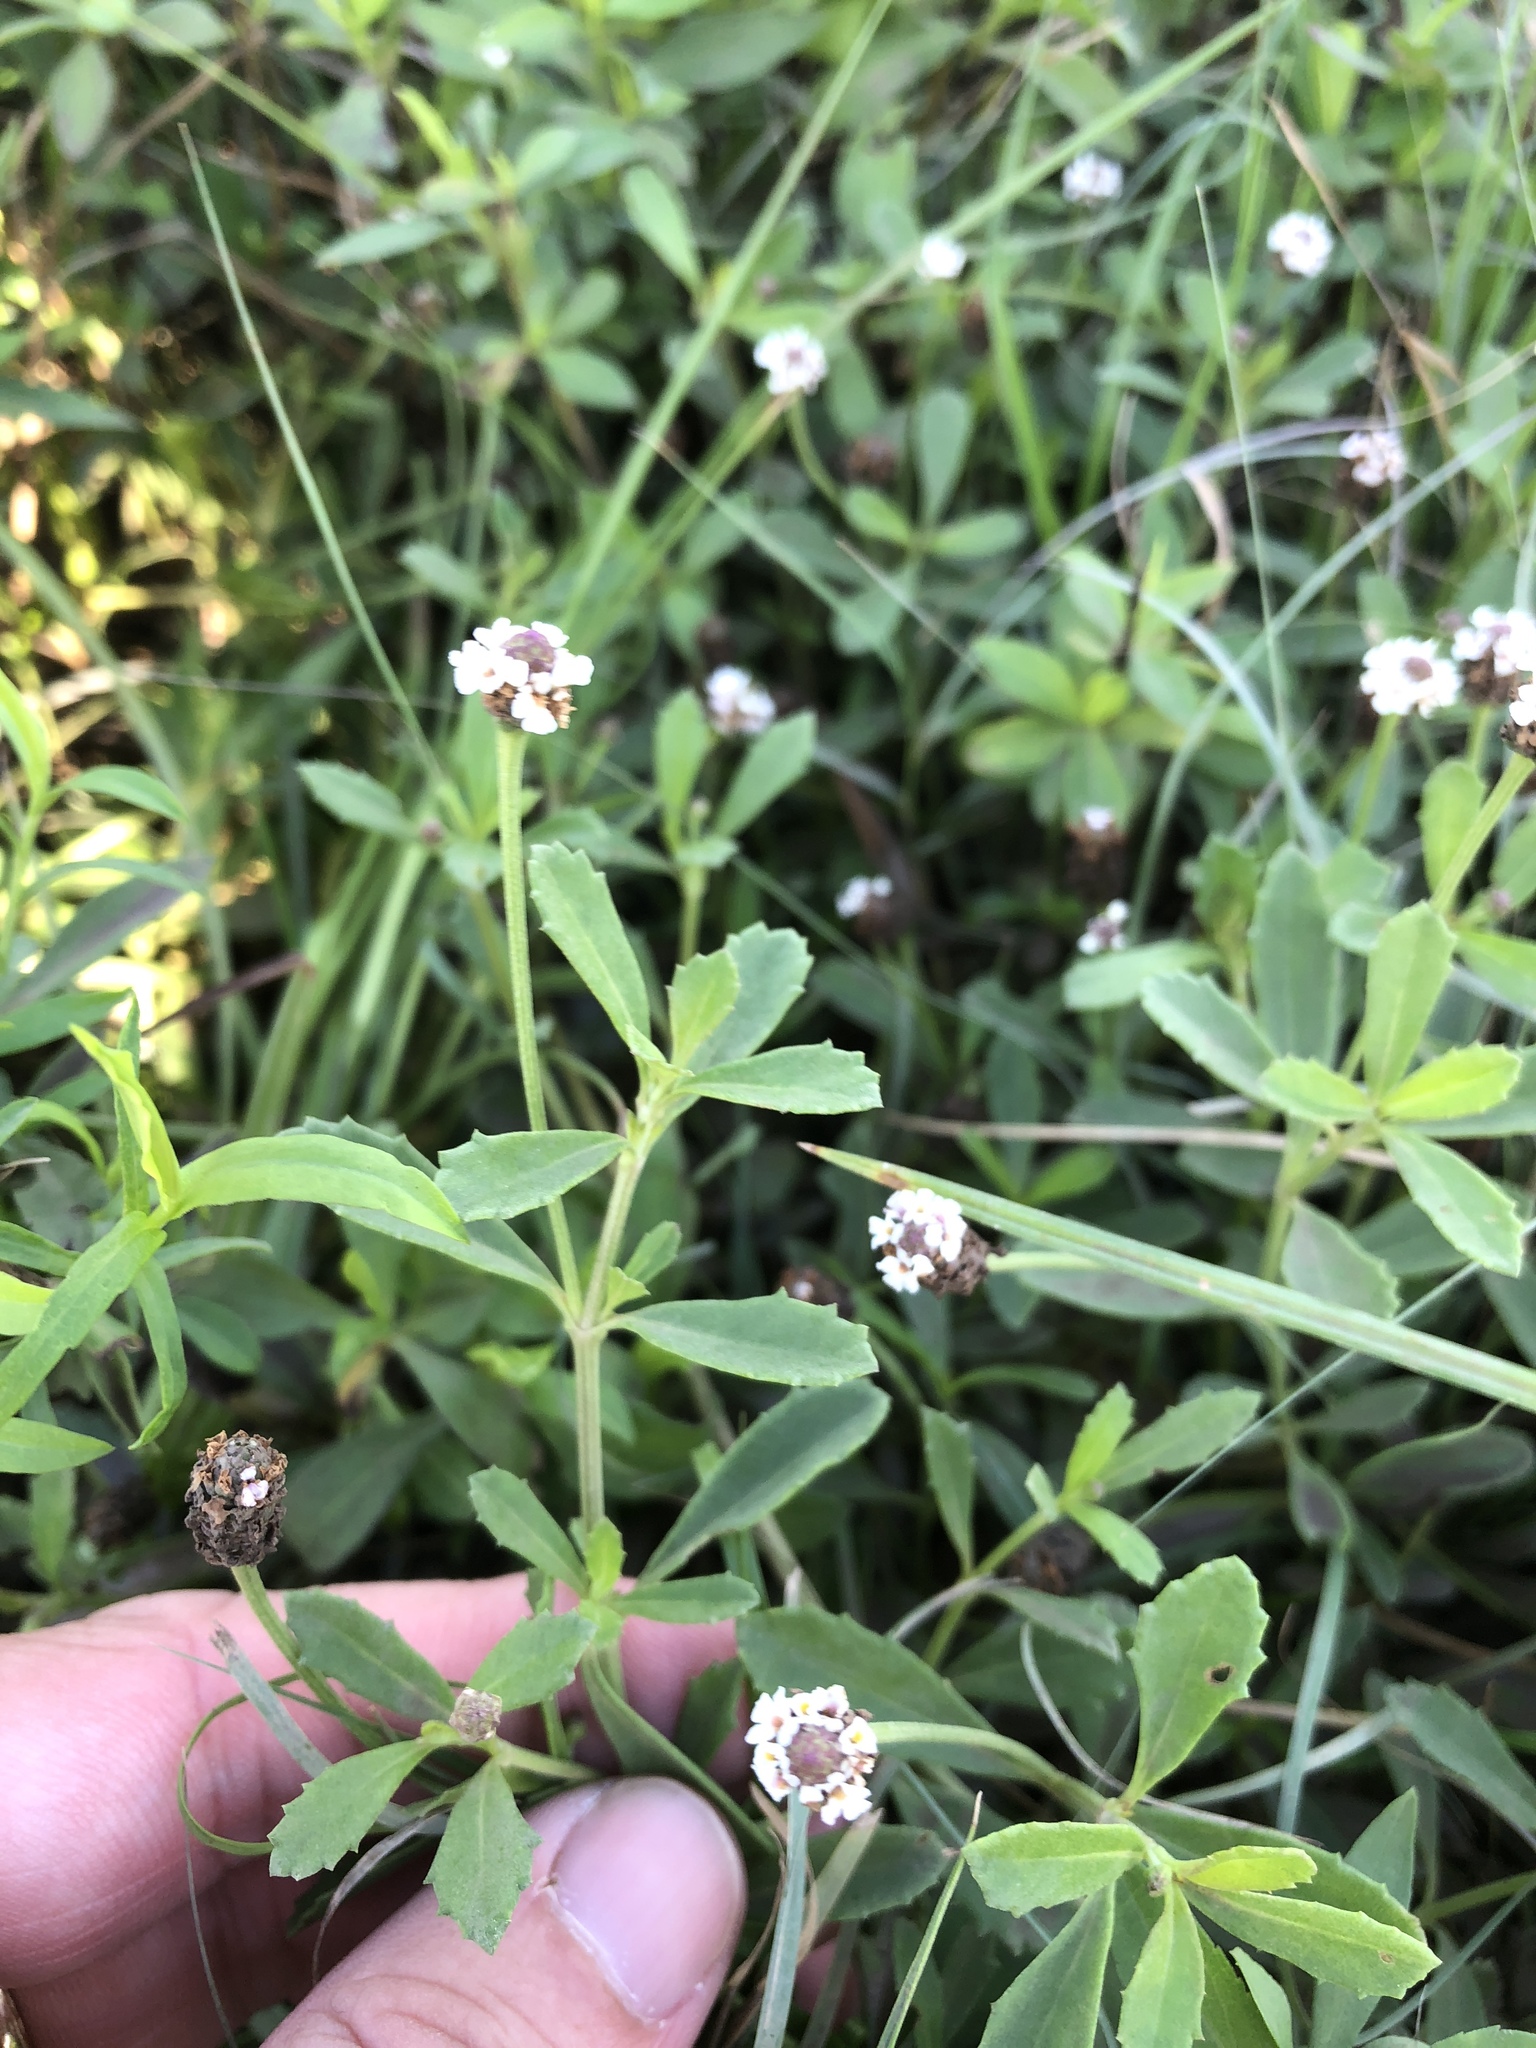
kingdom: Plantae
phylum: Tracheophyta
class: Magnoliopsida
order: Lamiales
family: Verbenaceae
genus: Phyla
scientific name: Phyla nodiflora
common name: Frogfruit
